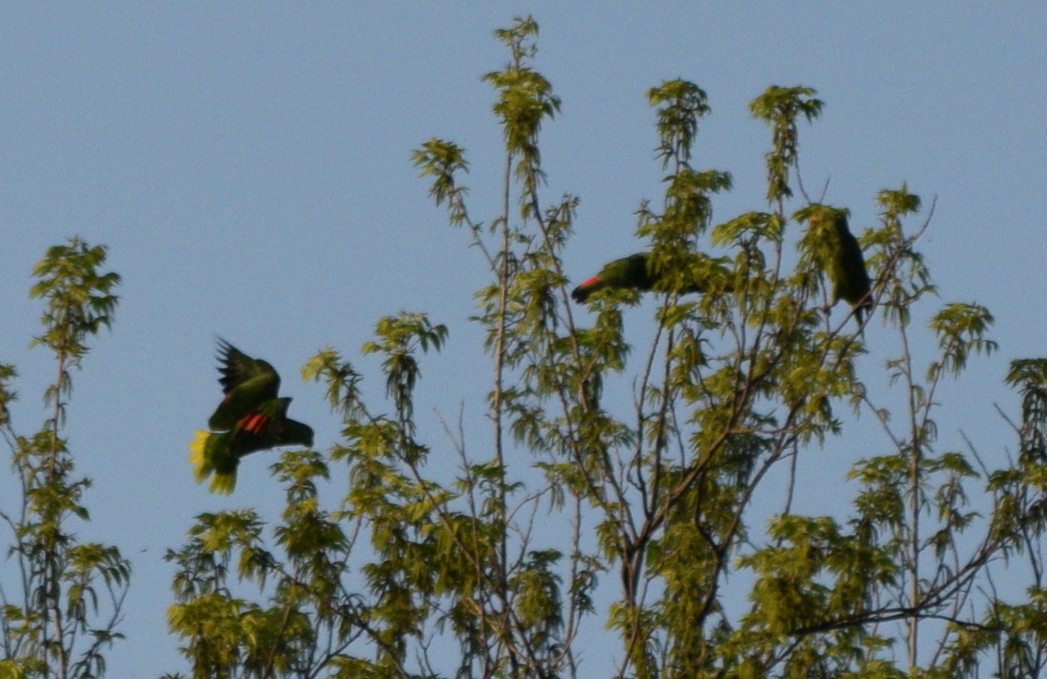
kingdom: Animalia
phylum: Chordata
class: Aves
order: Psittaciformes
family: Psittacidae
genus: Amazona
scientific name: Amazona
